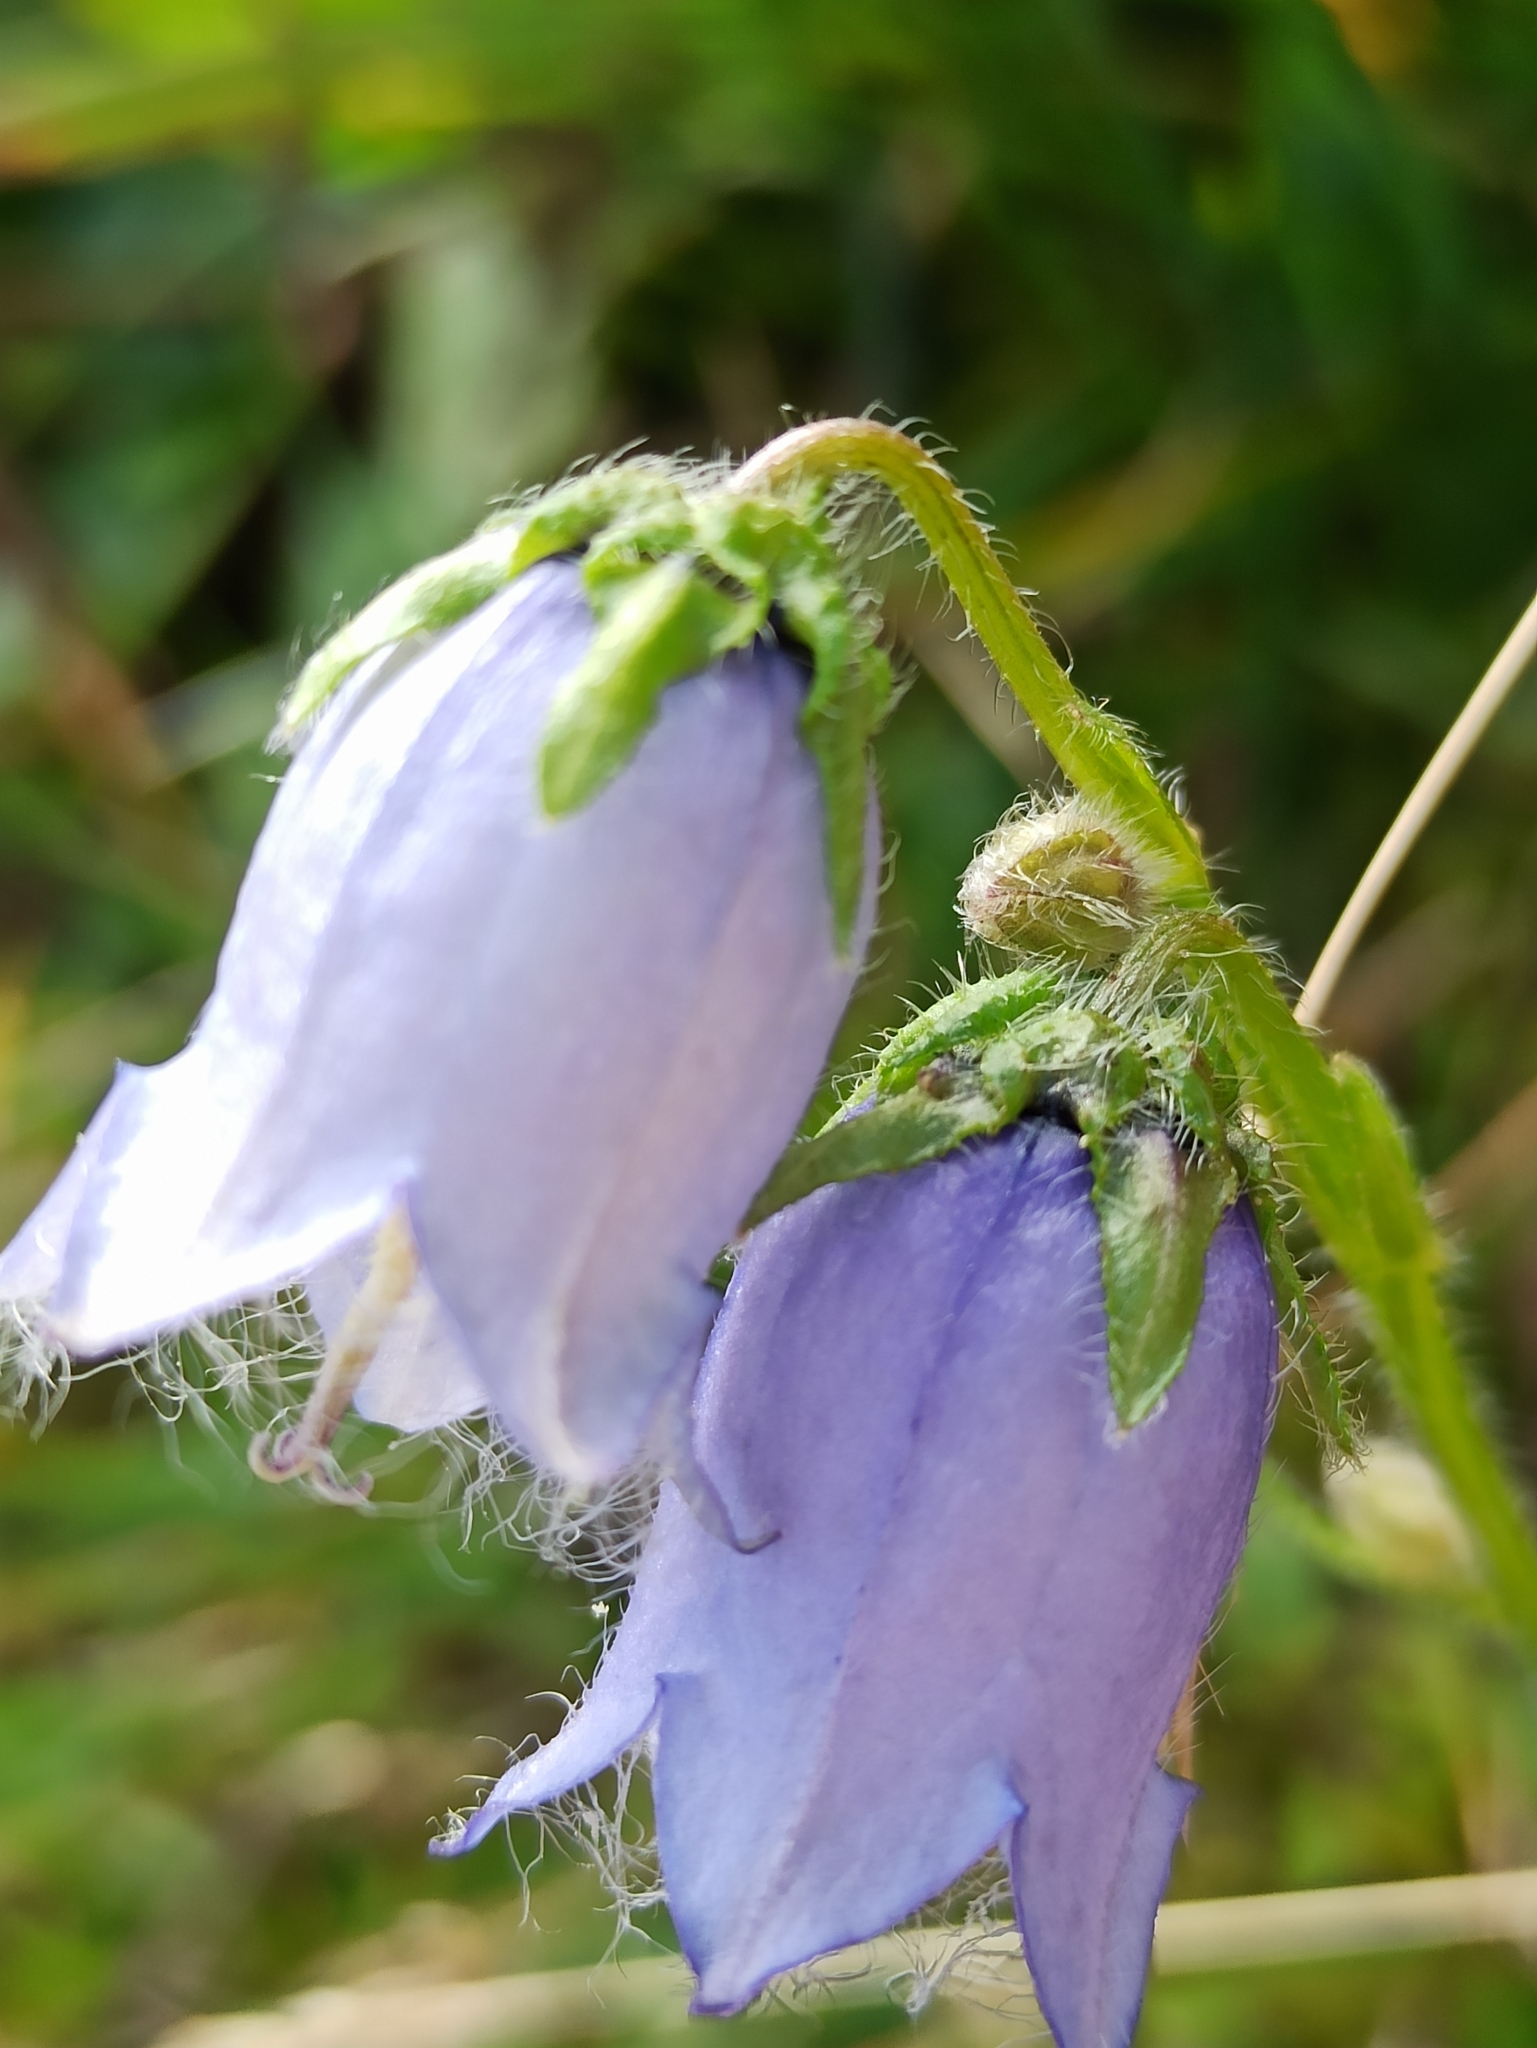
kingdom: Plantae
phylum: Tracheophyta
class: Magnoliopsida
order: Asterales
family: Campanulaceae
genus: Campanula
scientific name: Campanula barbata
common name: Bearded bellflower
